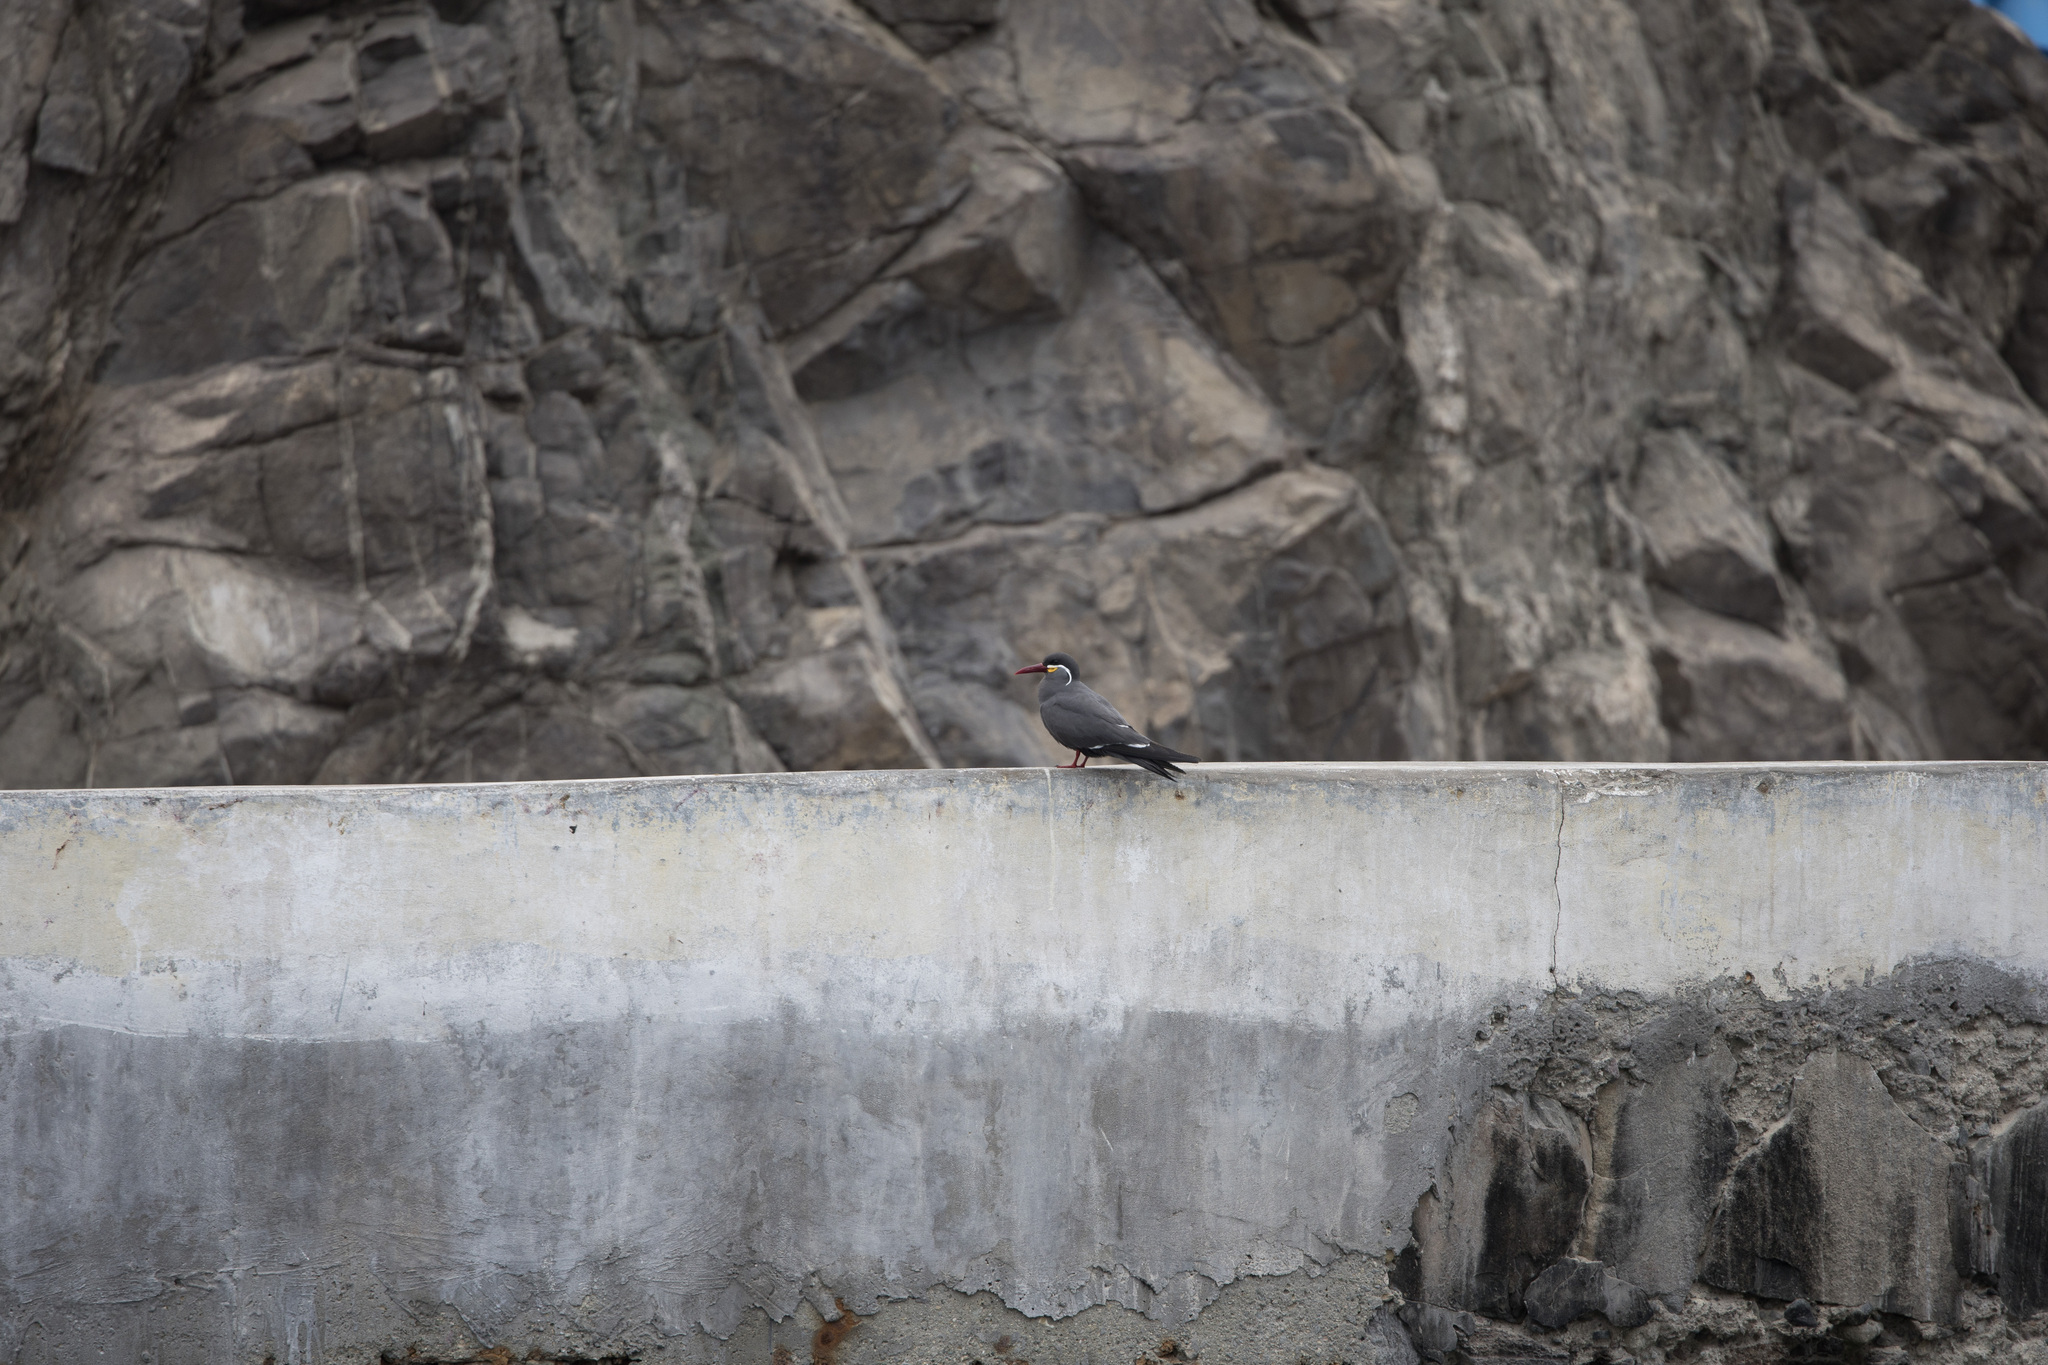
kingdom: Animalia
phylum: Chordata
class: Aves
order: Charadriiformes
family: Laridae
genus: Larosterna
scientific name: Larosterna inca
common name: Inca tern
